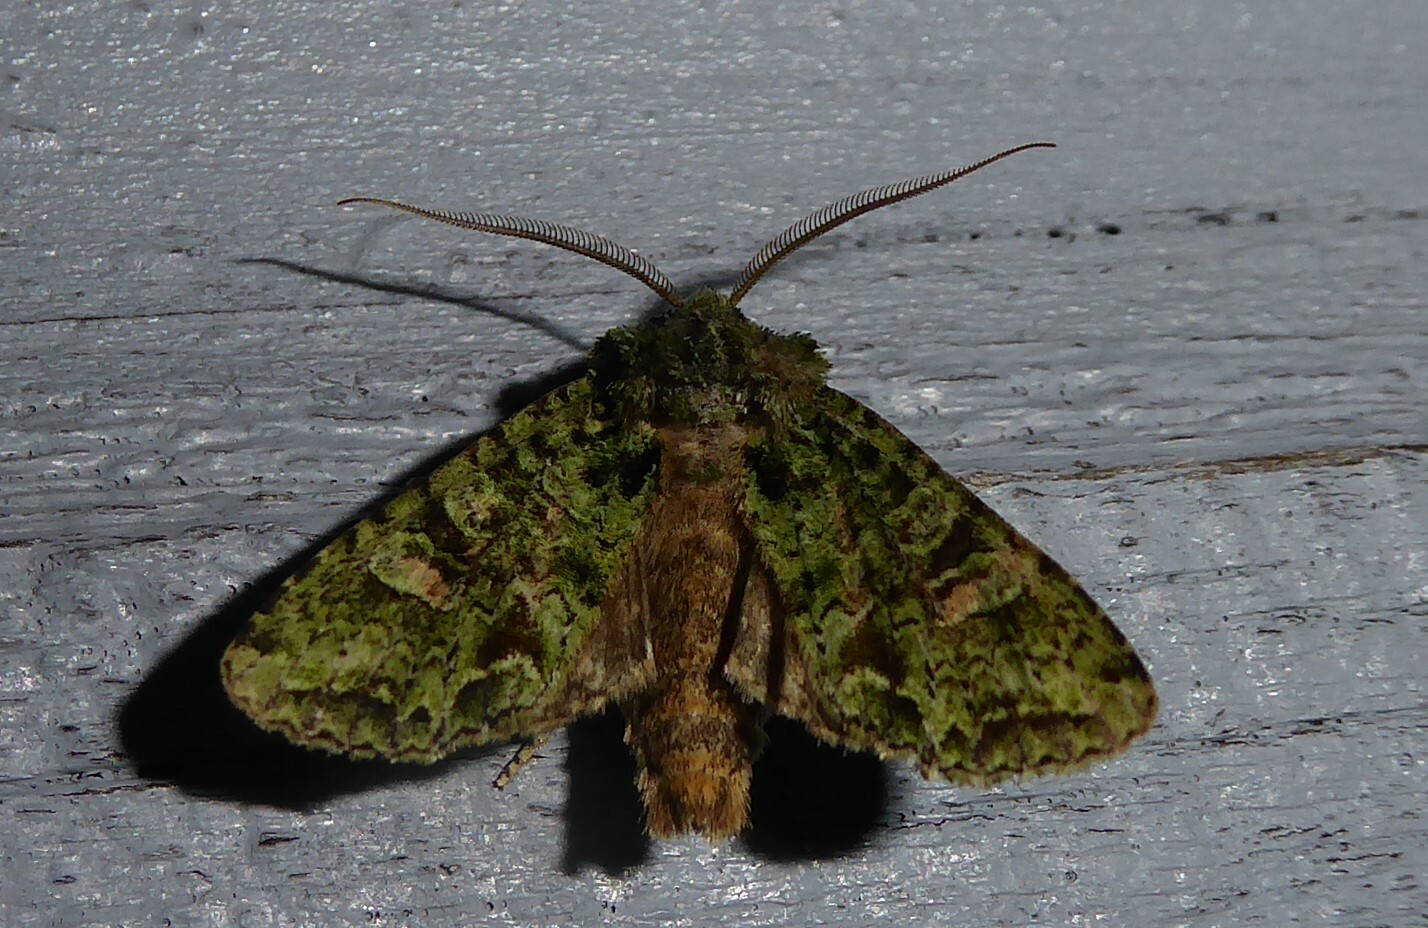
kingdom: Animalia
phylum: Arthropoda
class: Insecta
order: Lepidoptera
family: Noctuidae
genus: Ichneutica
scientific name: Ichneutica
